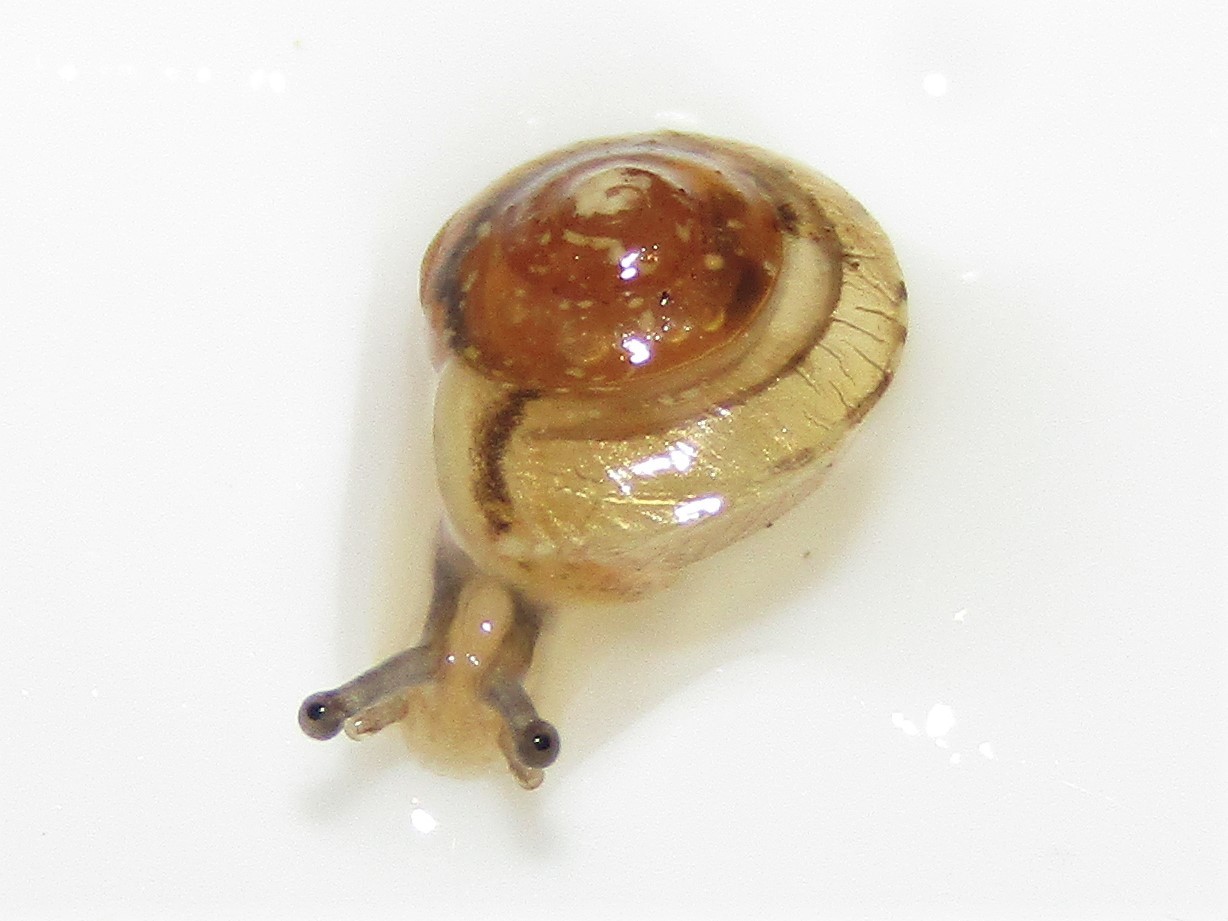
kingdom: Animalia
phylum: Mollusca
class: Gastropoda
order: Stylommatophora
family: Hygromiidae
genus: Hygromia
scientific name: Hygromia cinctella
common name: Girdled snail
